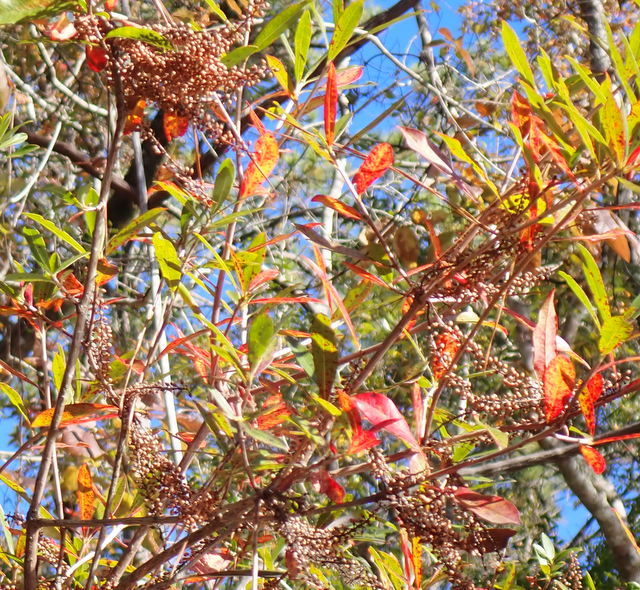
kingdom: Plantae
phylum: Tracheophyta
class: Magnoliopsida
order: Ericales
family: Cyrillaceae
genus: Cyrilla
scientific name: Cyrilla racemiflora
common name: Black titi
